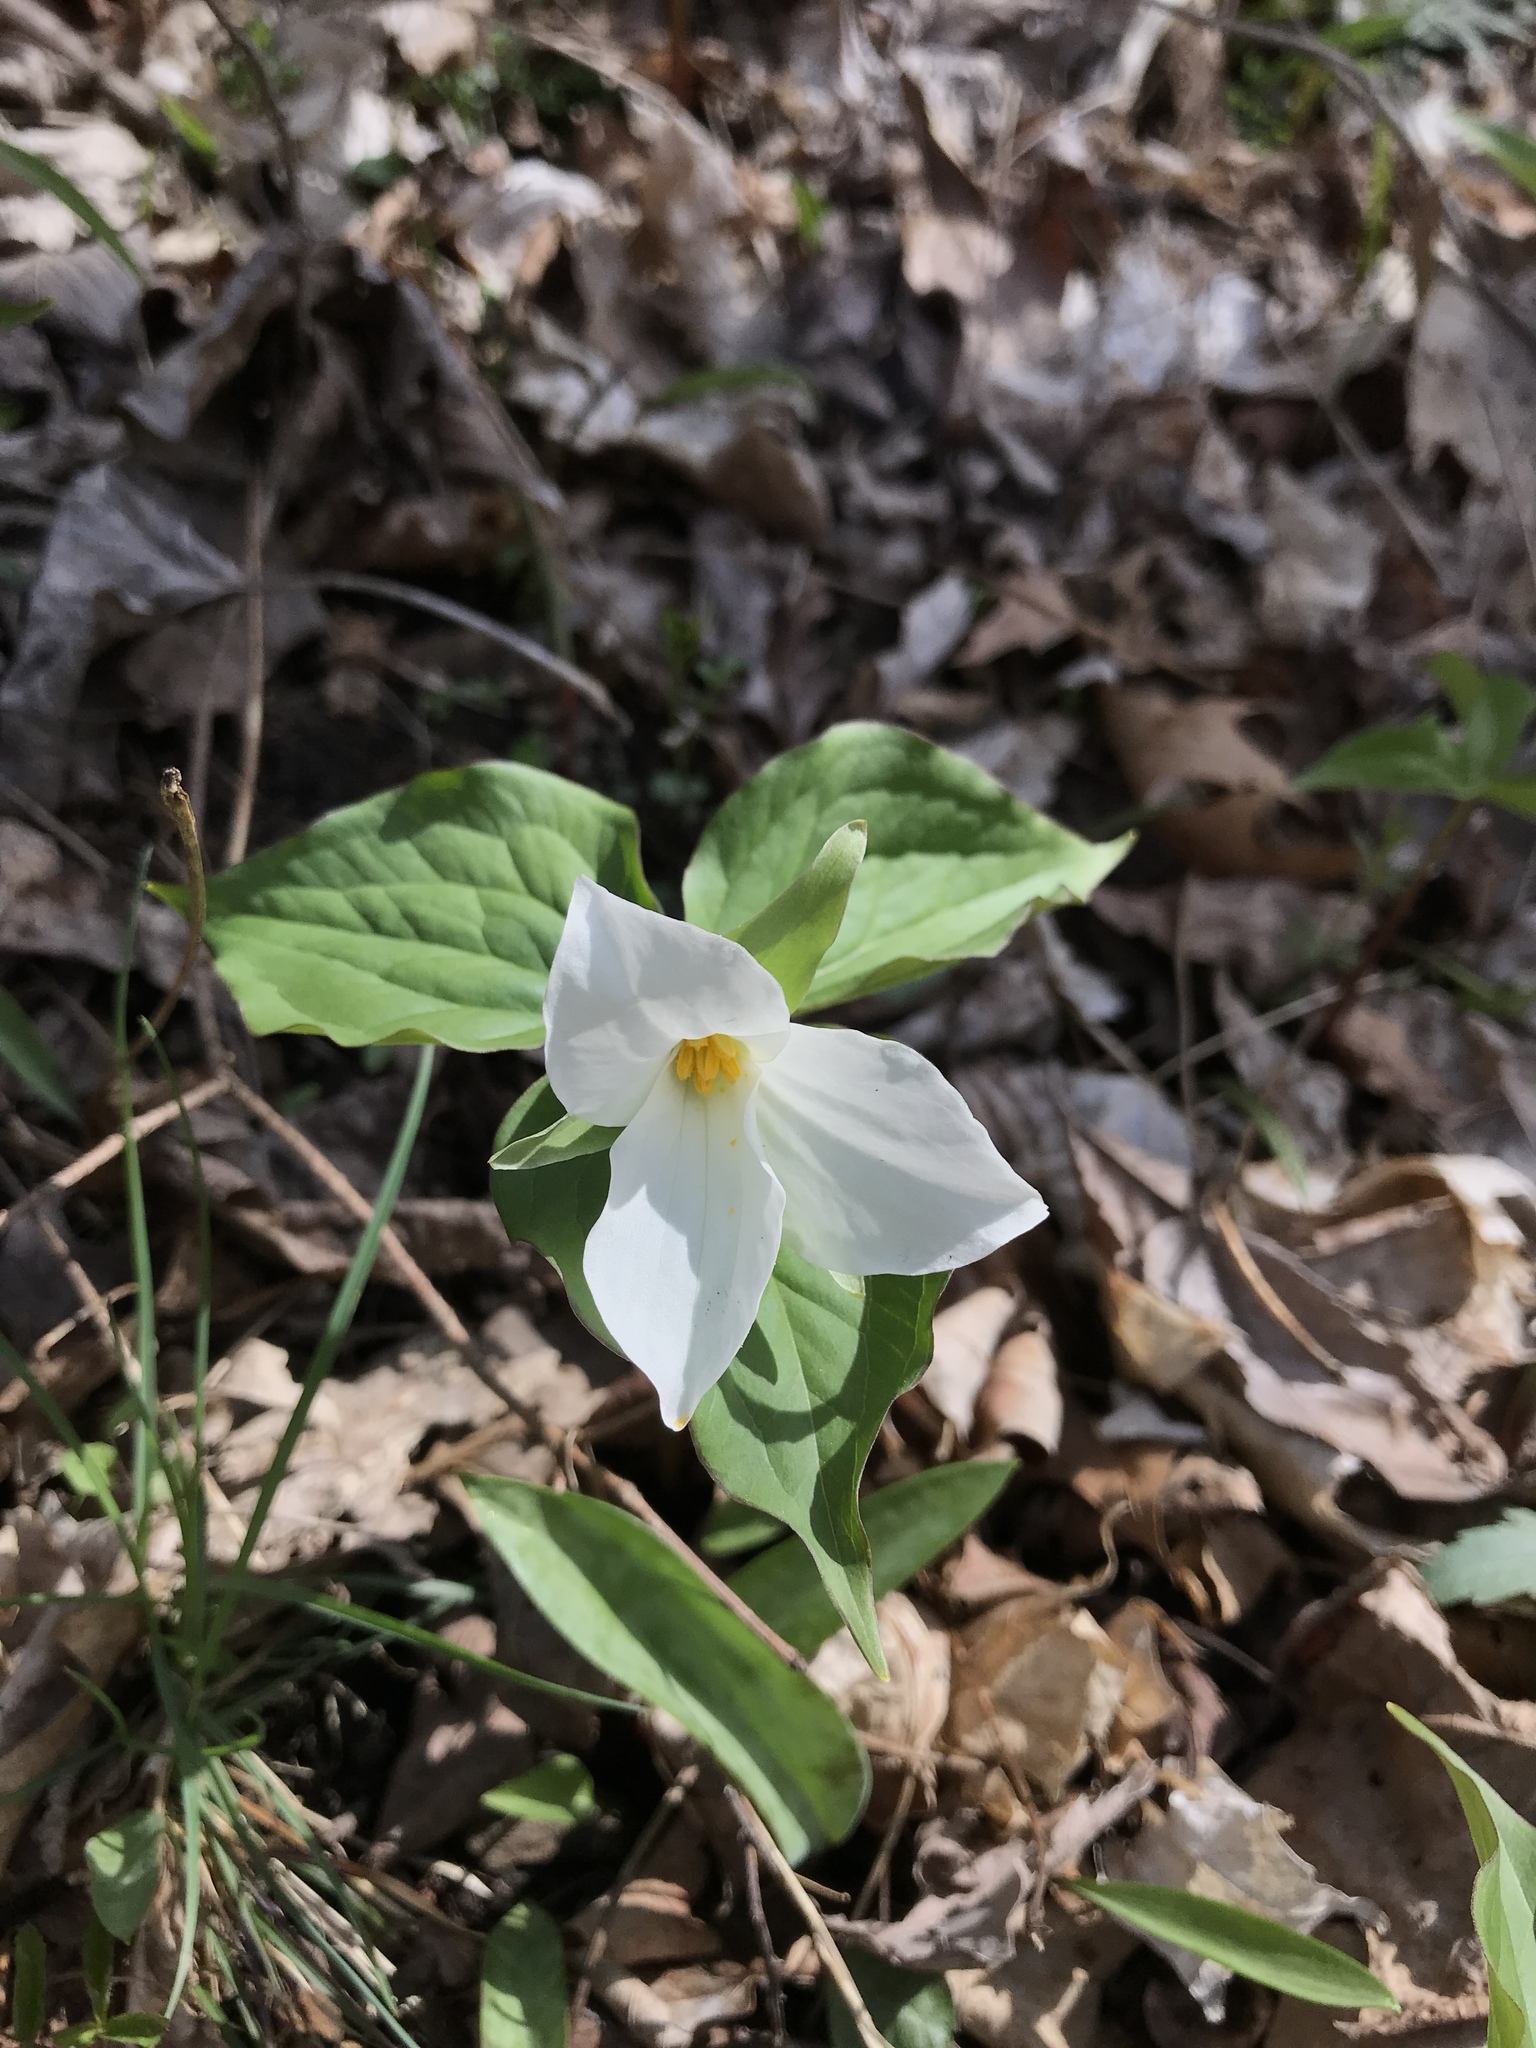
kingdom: Plantae
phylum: Tracheophyta
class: Liliopsida
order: Liliales
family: Melanthiaceae
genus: Trillium
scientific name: Trillium grandiflorum
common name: Great white trillium
